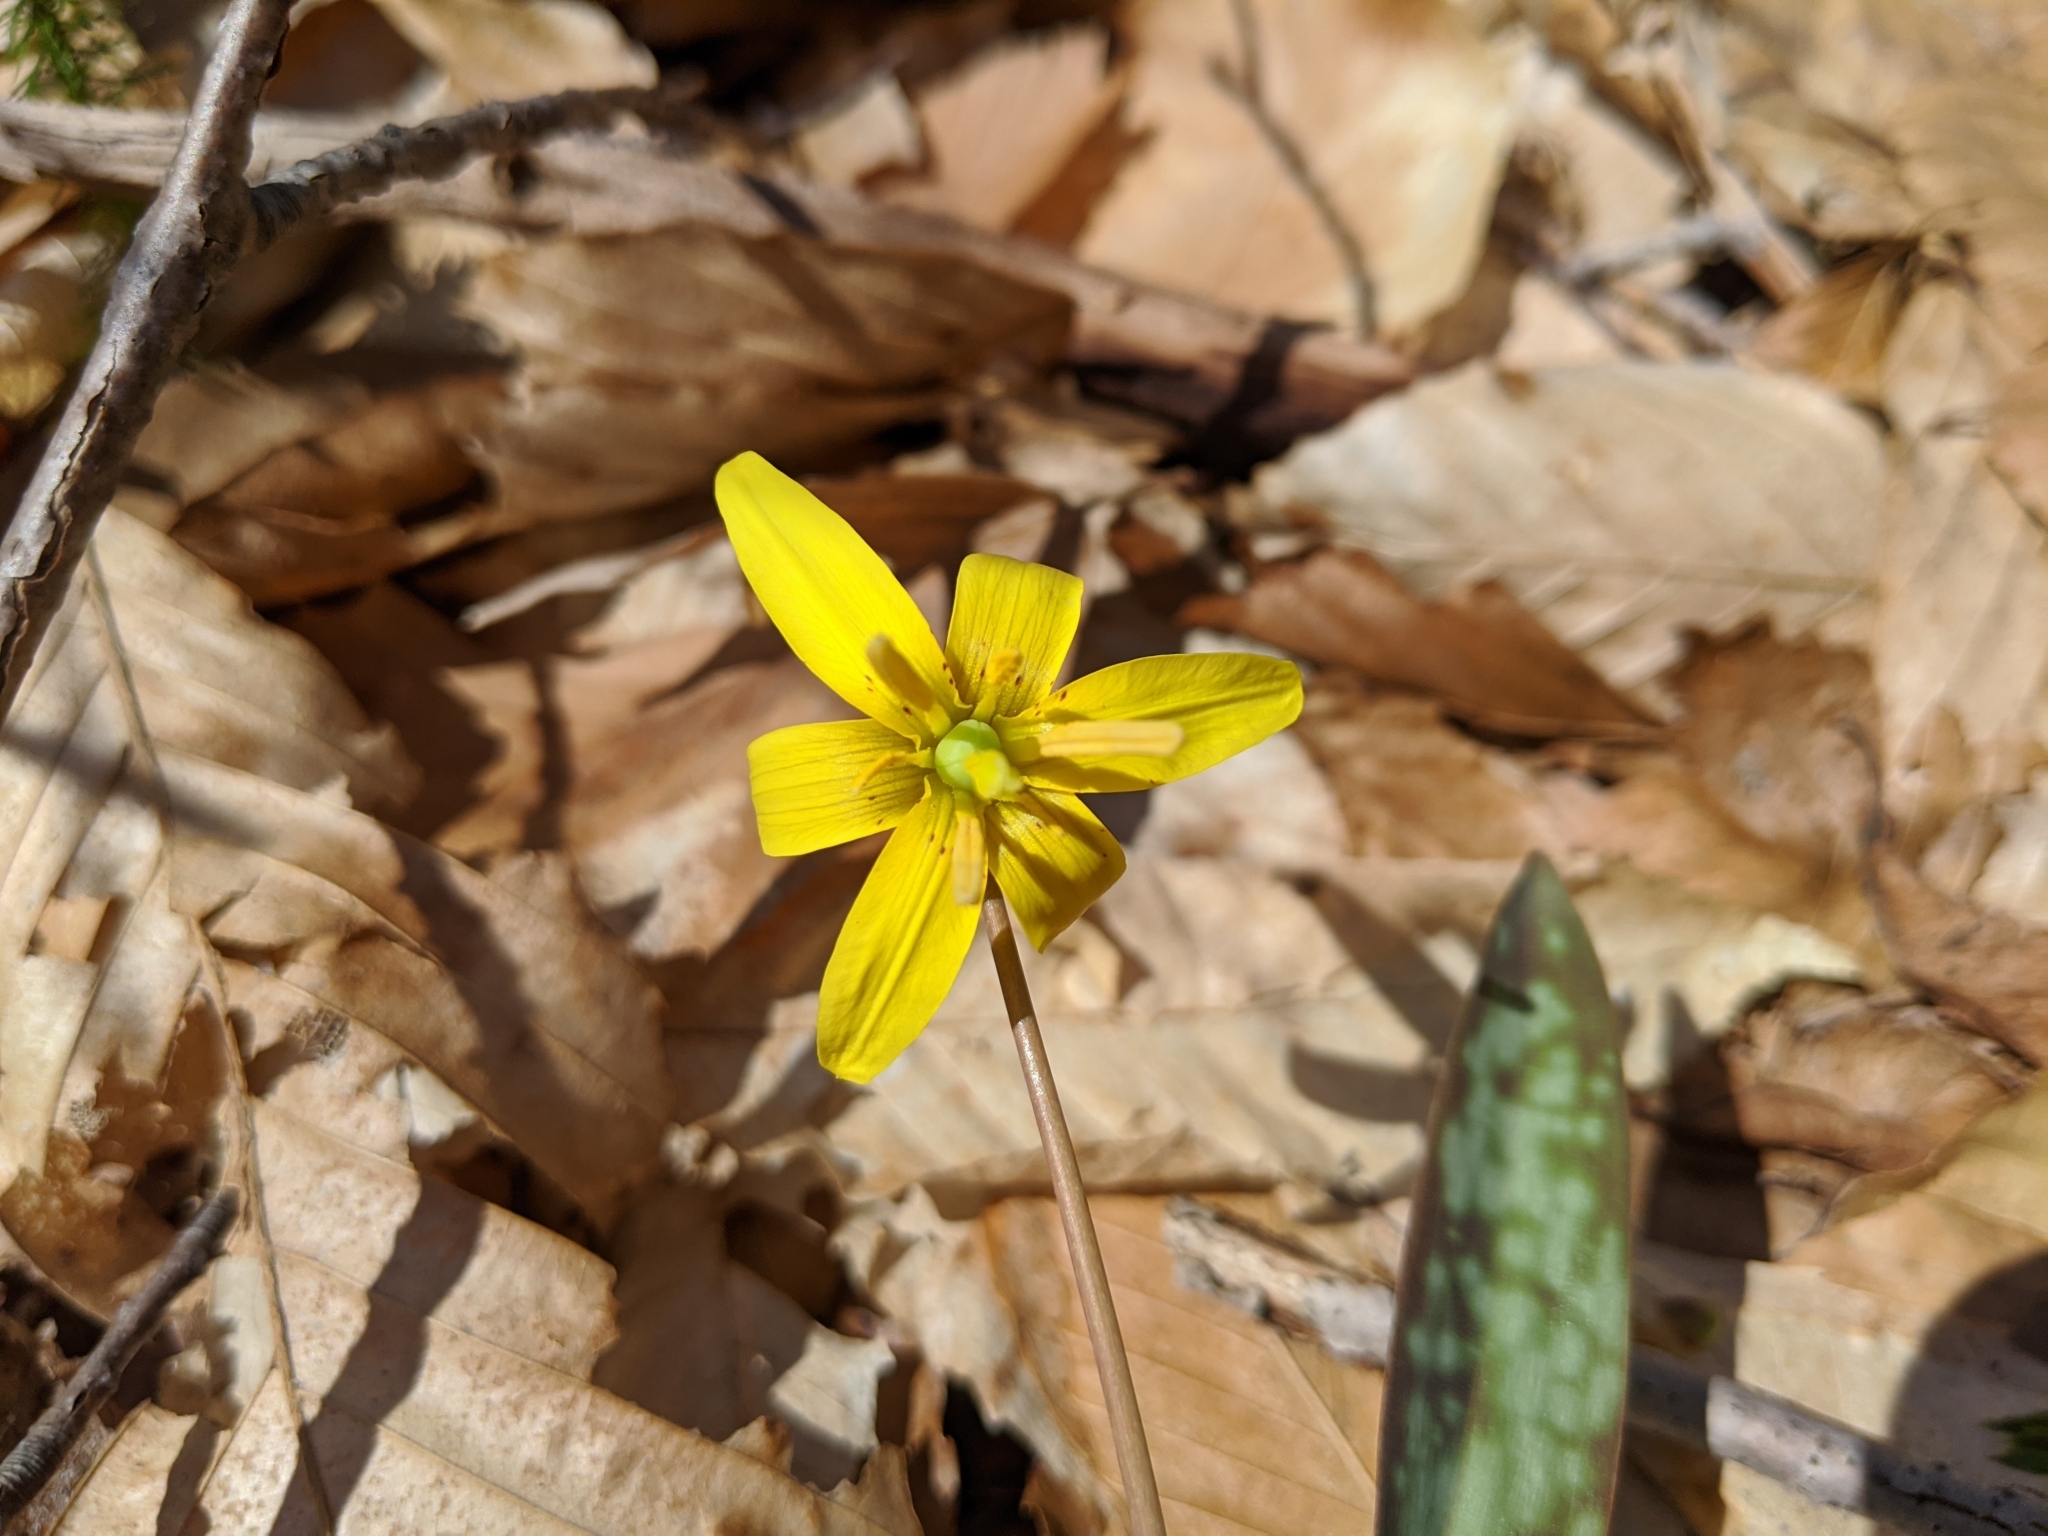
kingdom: Plantae
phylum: Tracheophyta
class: Liliopsida
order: Liliales
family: Liliaceae
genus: Erythronium
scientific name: Erythronium americanum
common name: Yellow adder's-tongue
